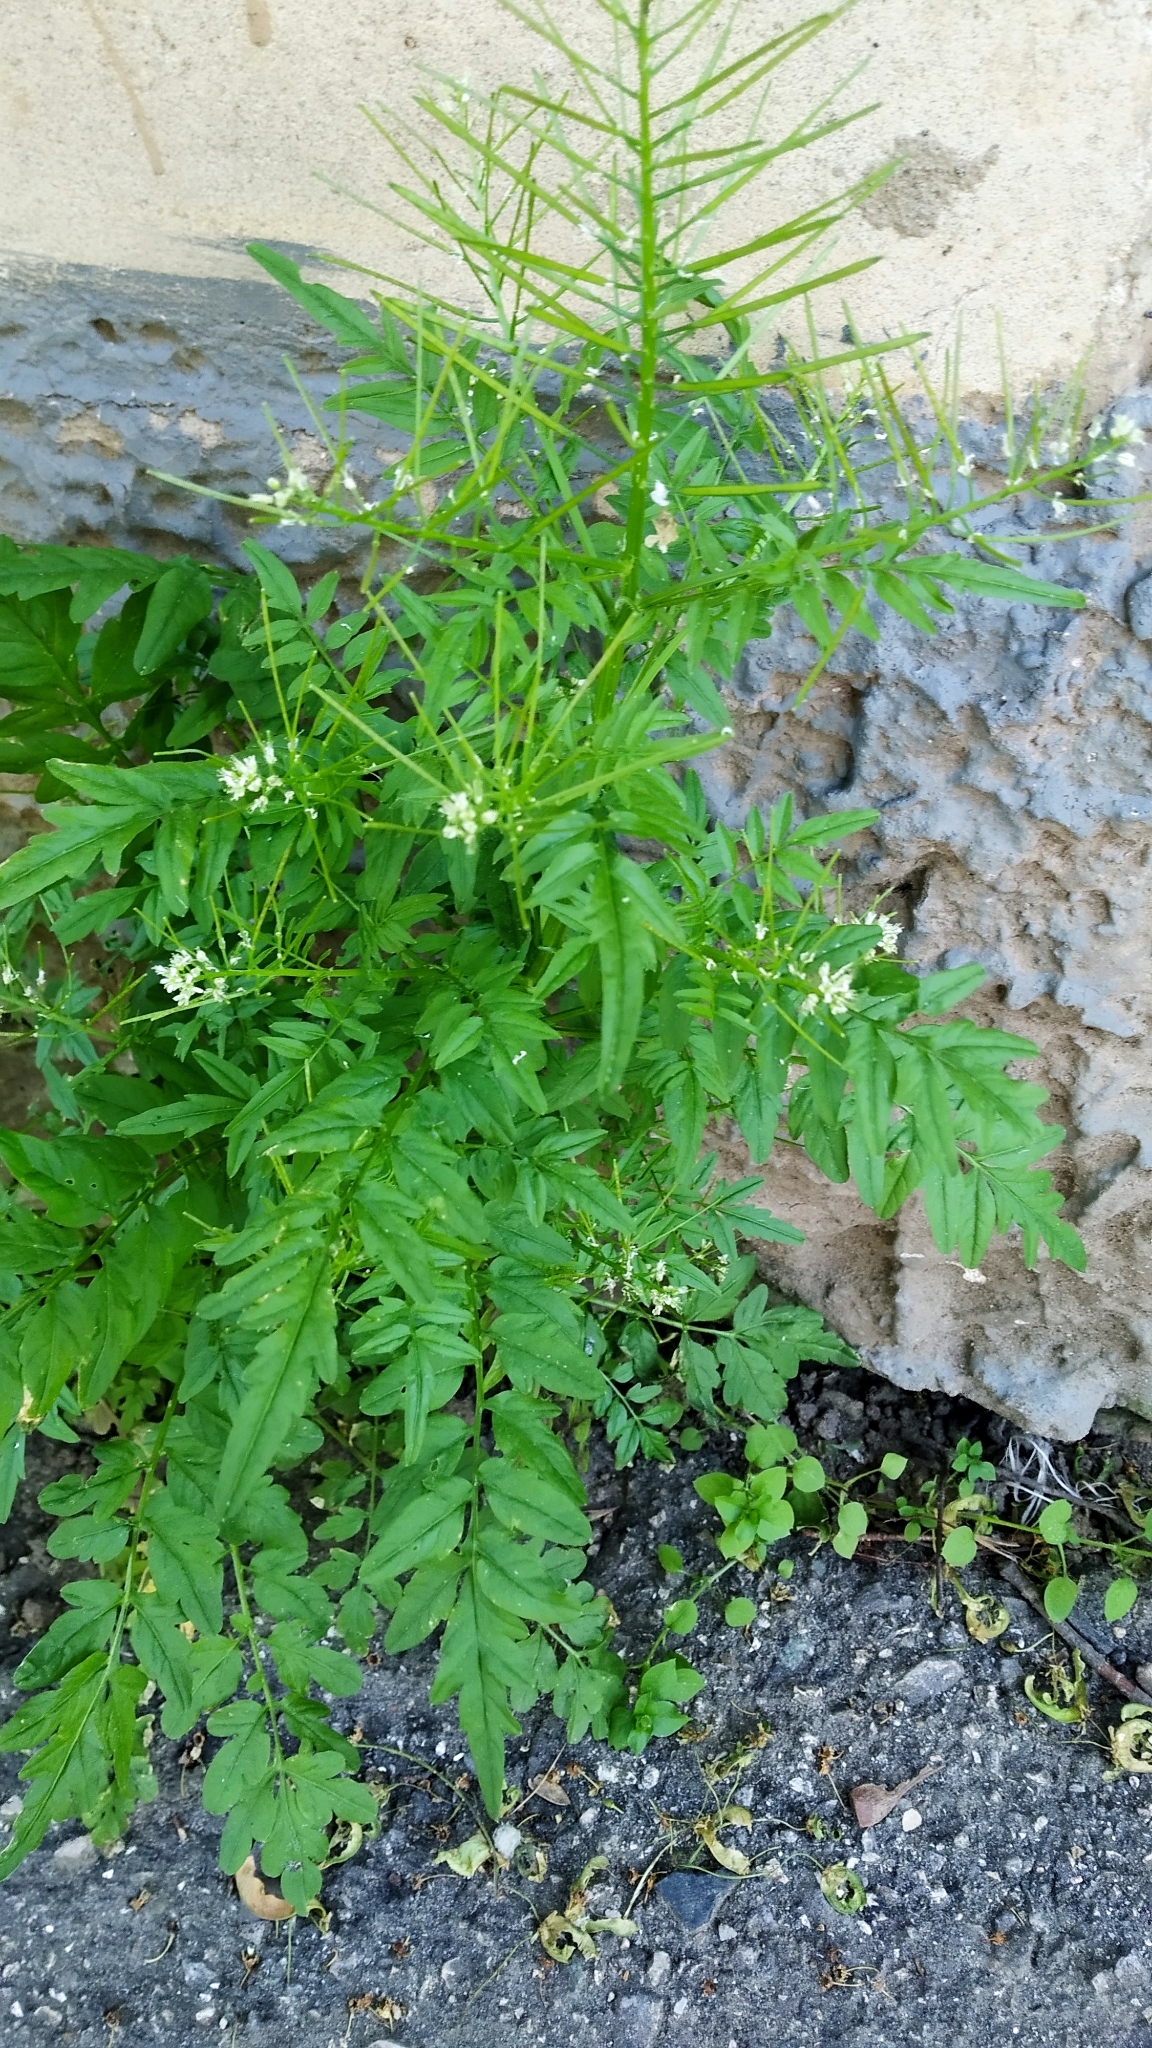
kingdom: Plantae
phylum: Tracheophyta
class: Magnoliopsida
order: Brassicales
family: Brassicaceae
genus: Cardamine
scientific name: Cardamine impatiens
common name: Narrow-leaved bitter-cress
